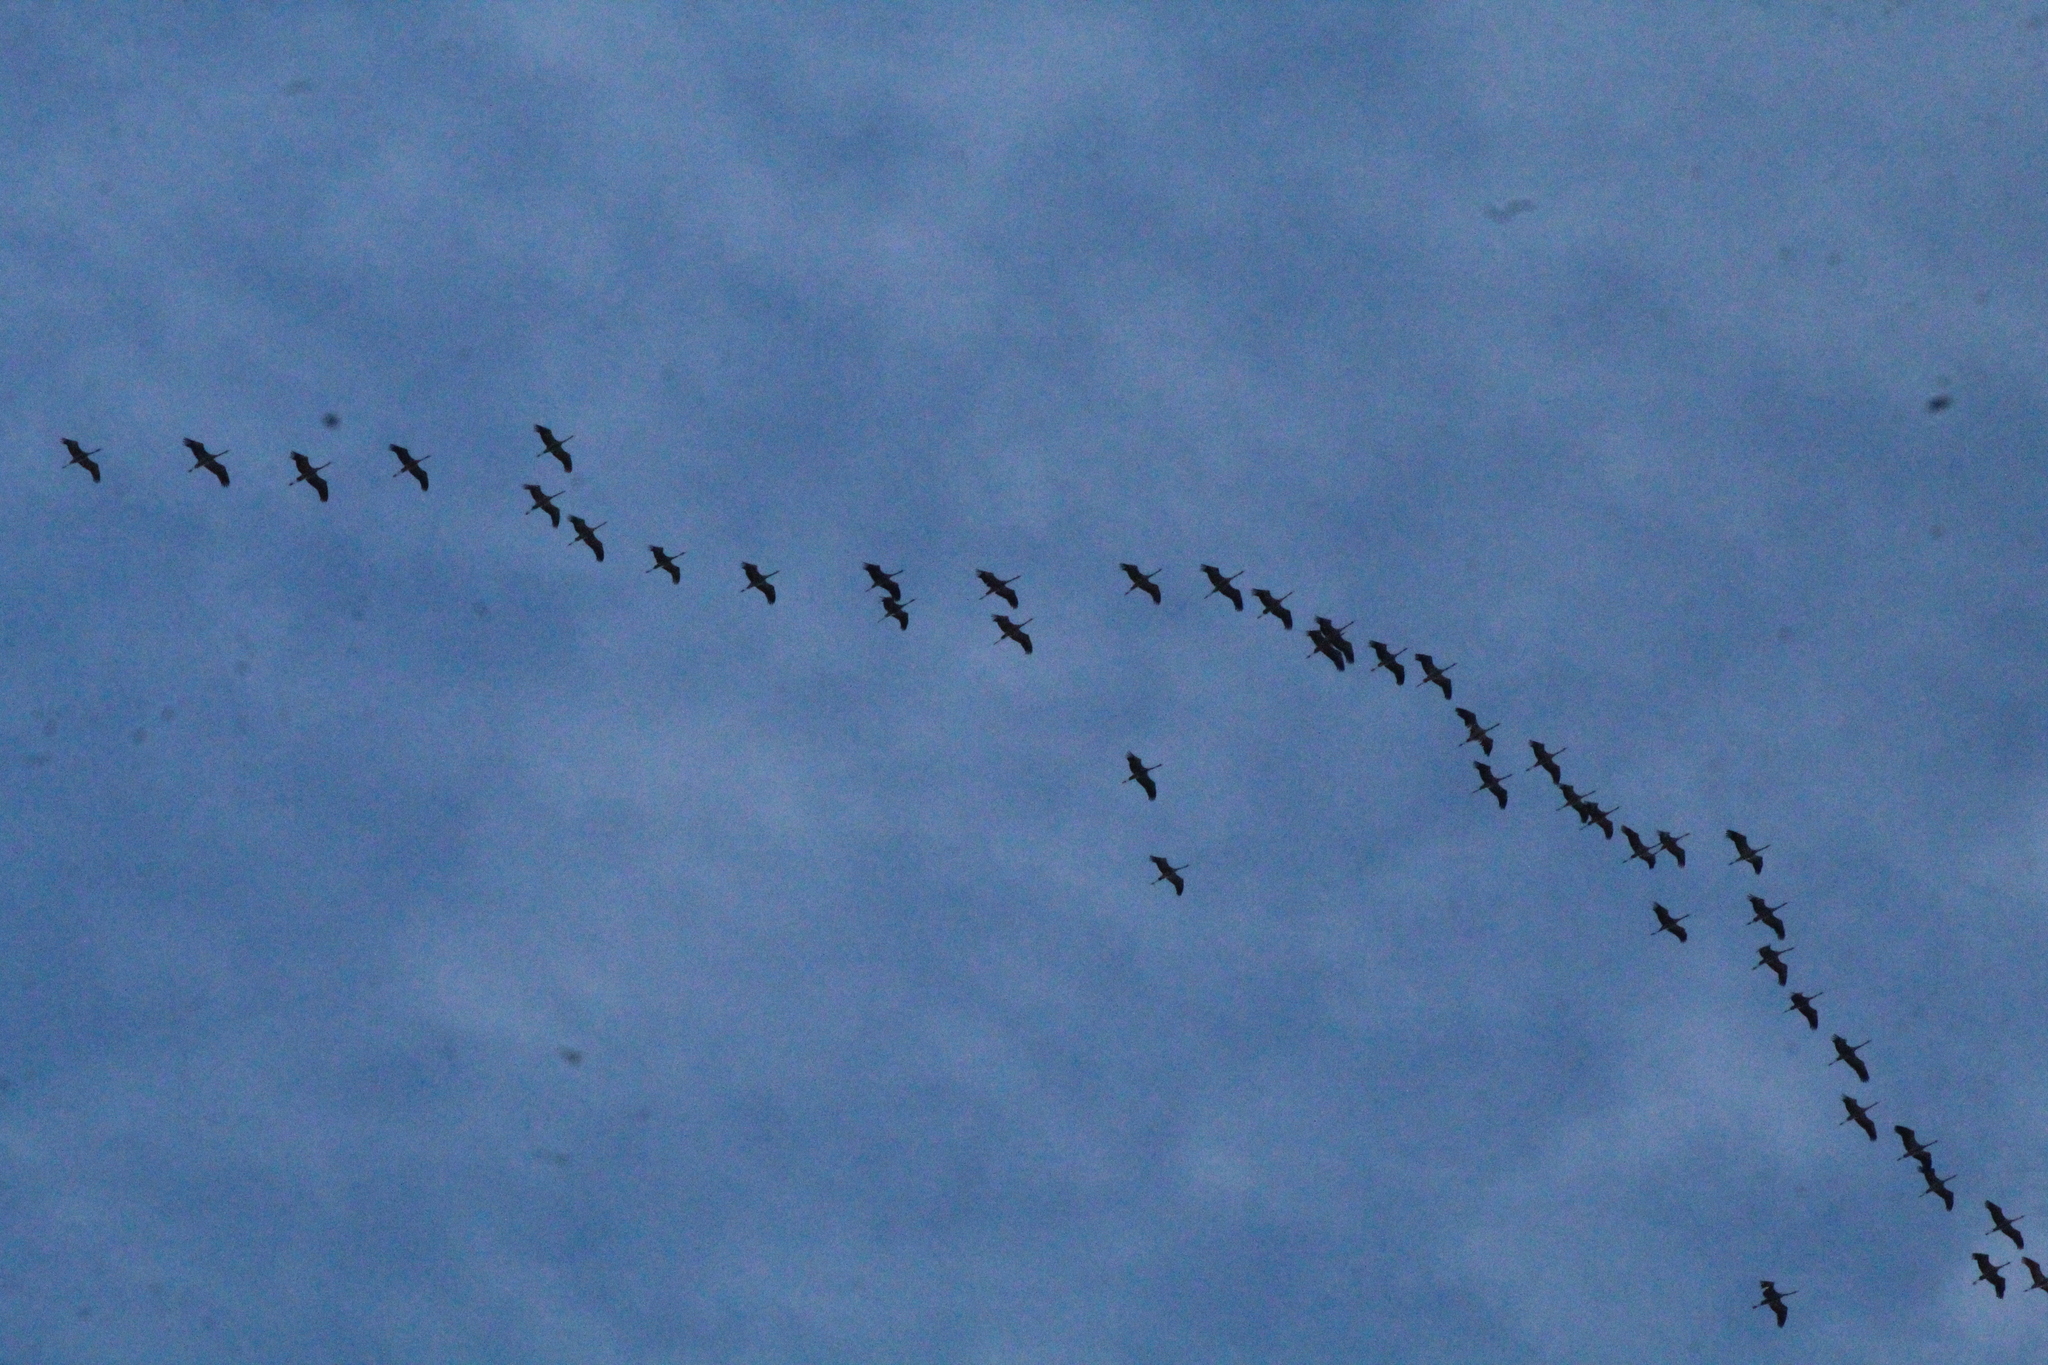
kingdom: Animalia
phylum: Chordata
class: Aves
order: Gruiformes
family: Gruidae
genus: Grus
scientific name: Grus grus
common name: Common crane
